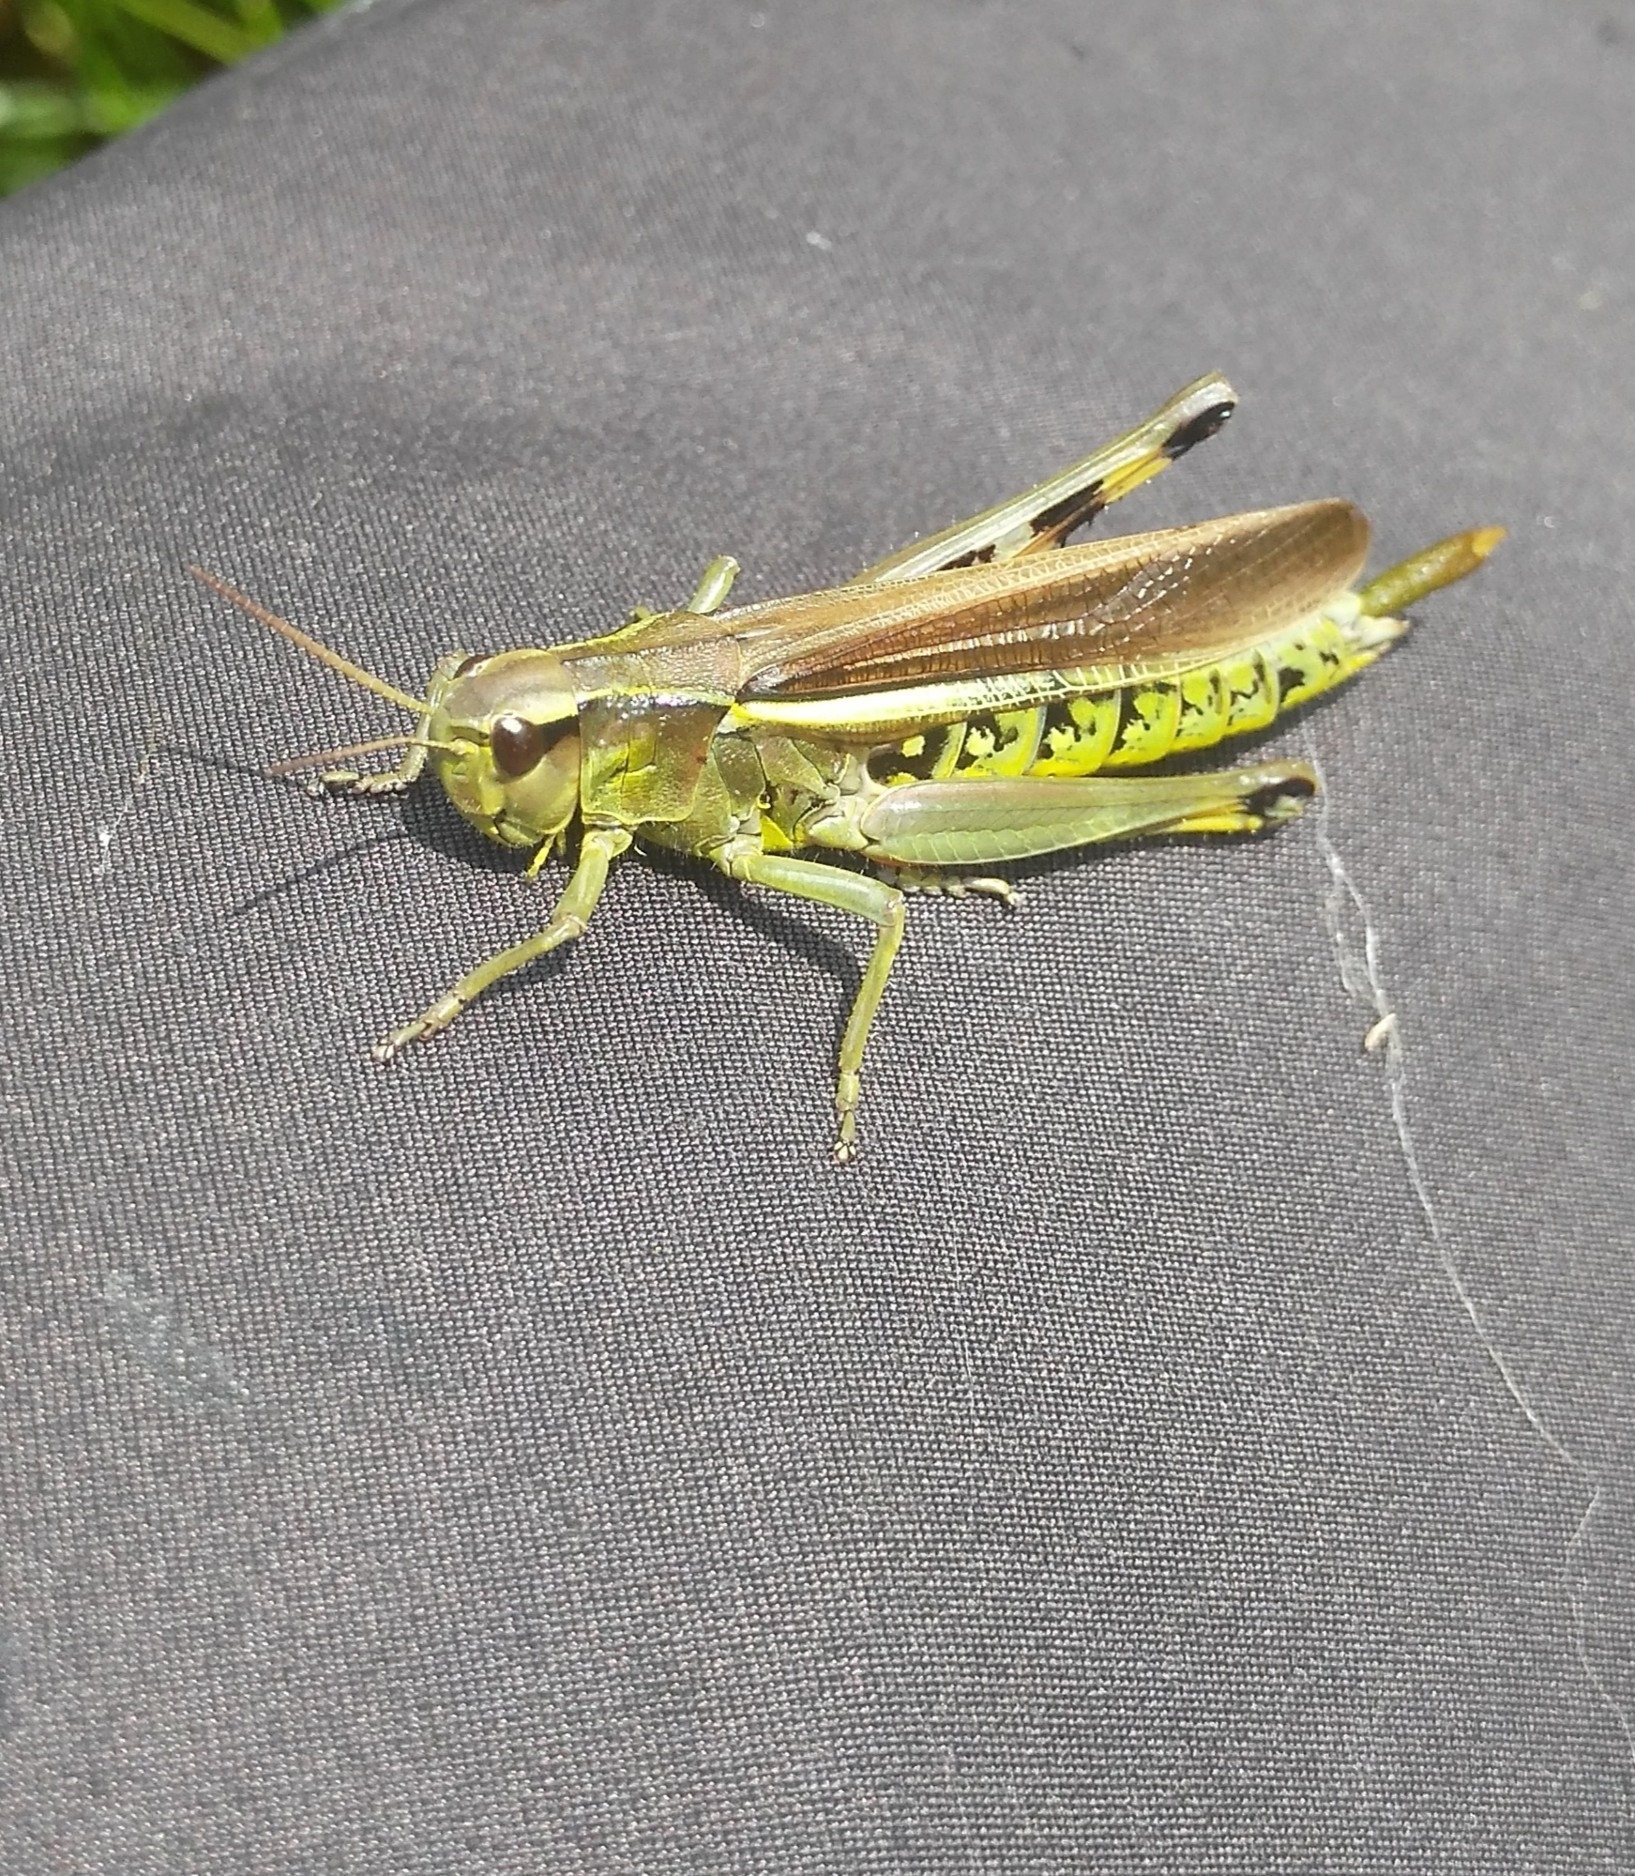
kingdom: Animalia
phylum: Arthropoda
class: Insecta
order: Orthoptera
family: Acrididae
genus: Stethophyma
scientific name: Stethophyma grossum
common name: Large marsh grasshopper
